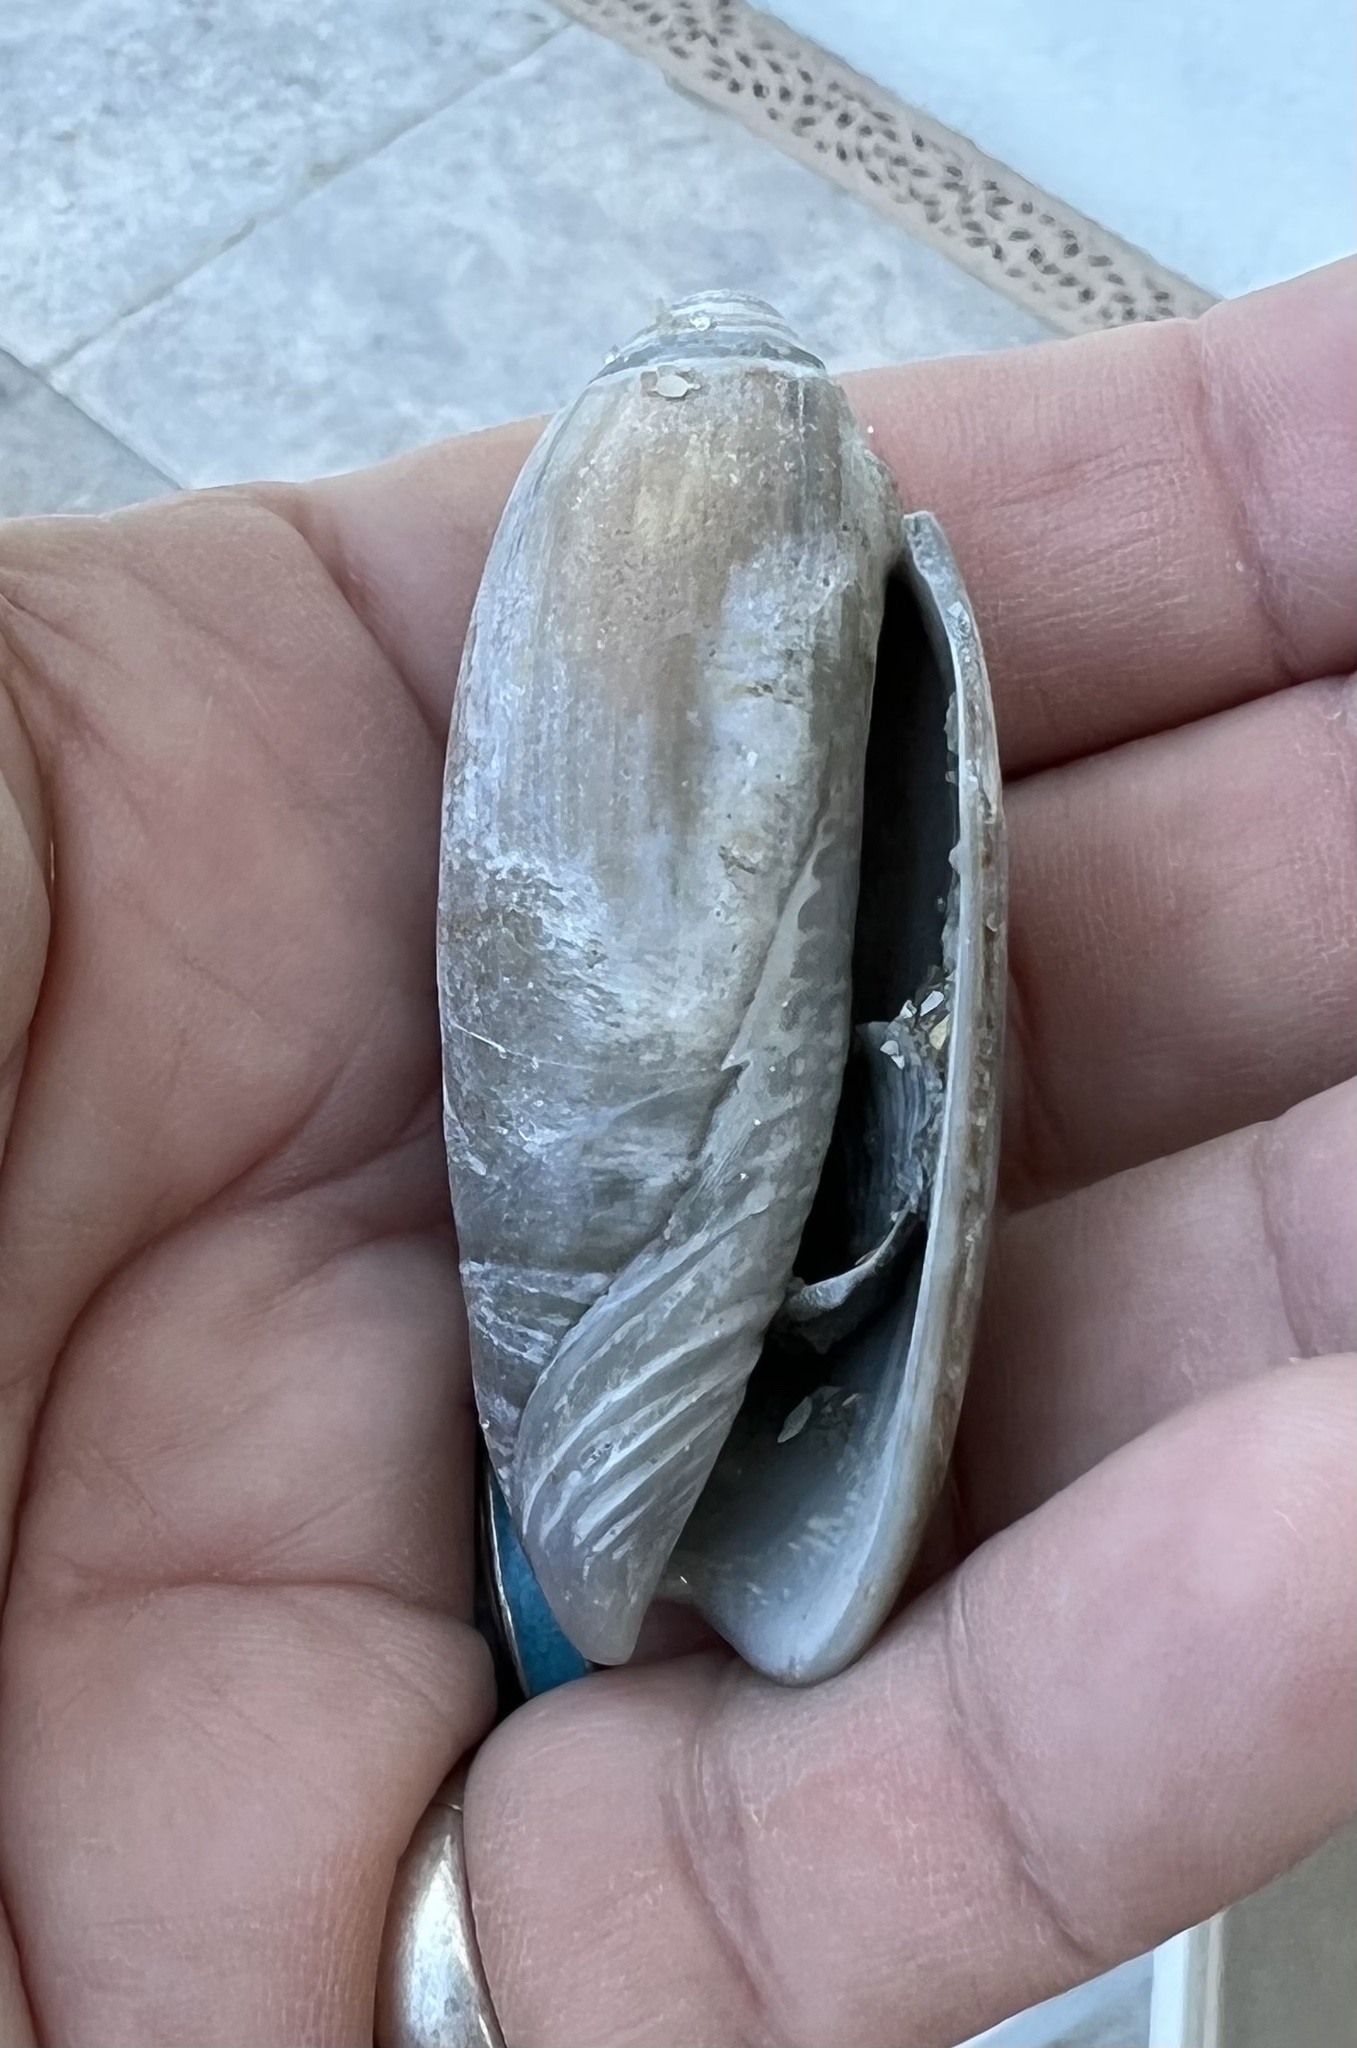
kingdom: Animalia
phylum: Mollusca
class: Gastropoda
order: Neogastropoda
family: Olividae
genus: Oliva
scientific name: Oliva sayana
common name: Lettered olive
